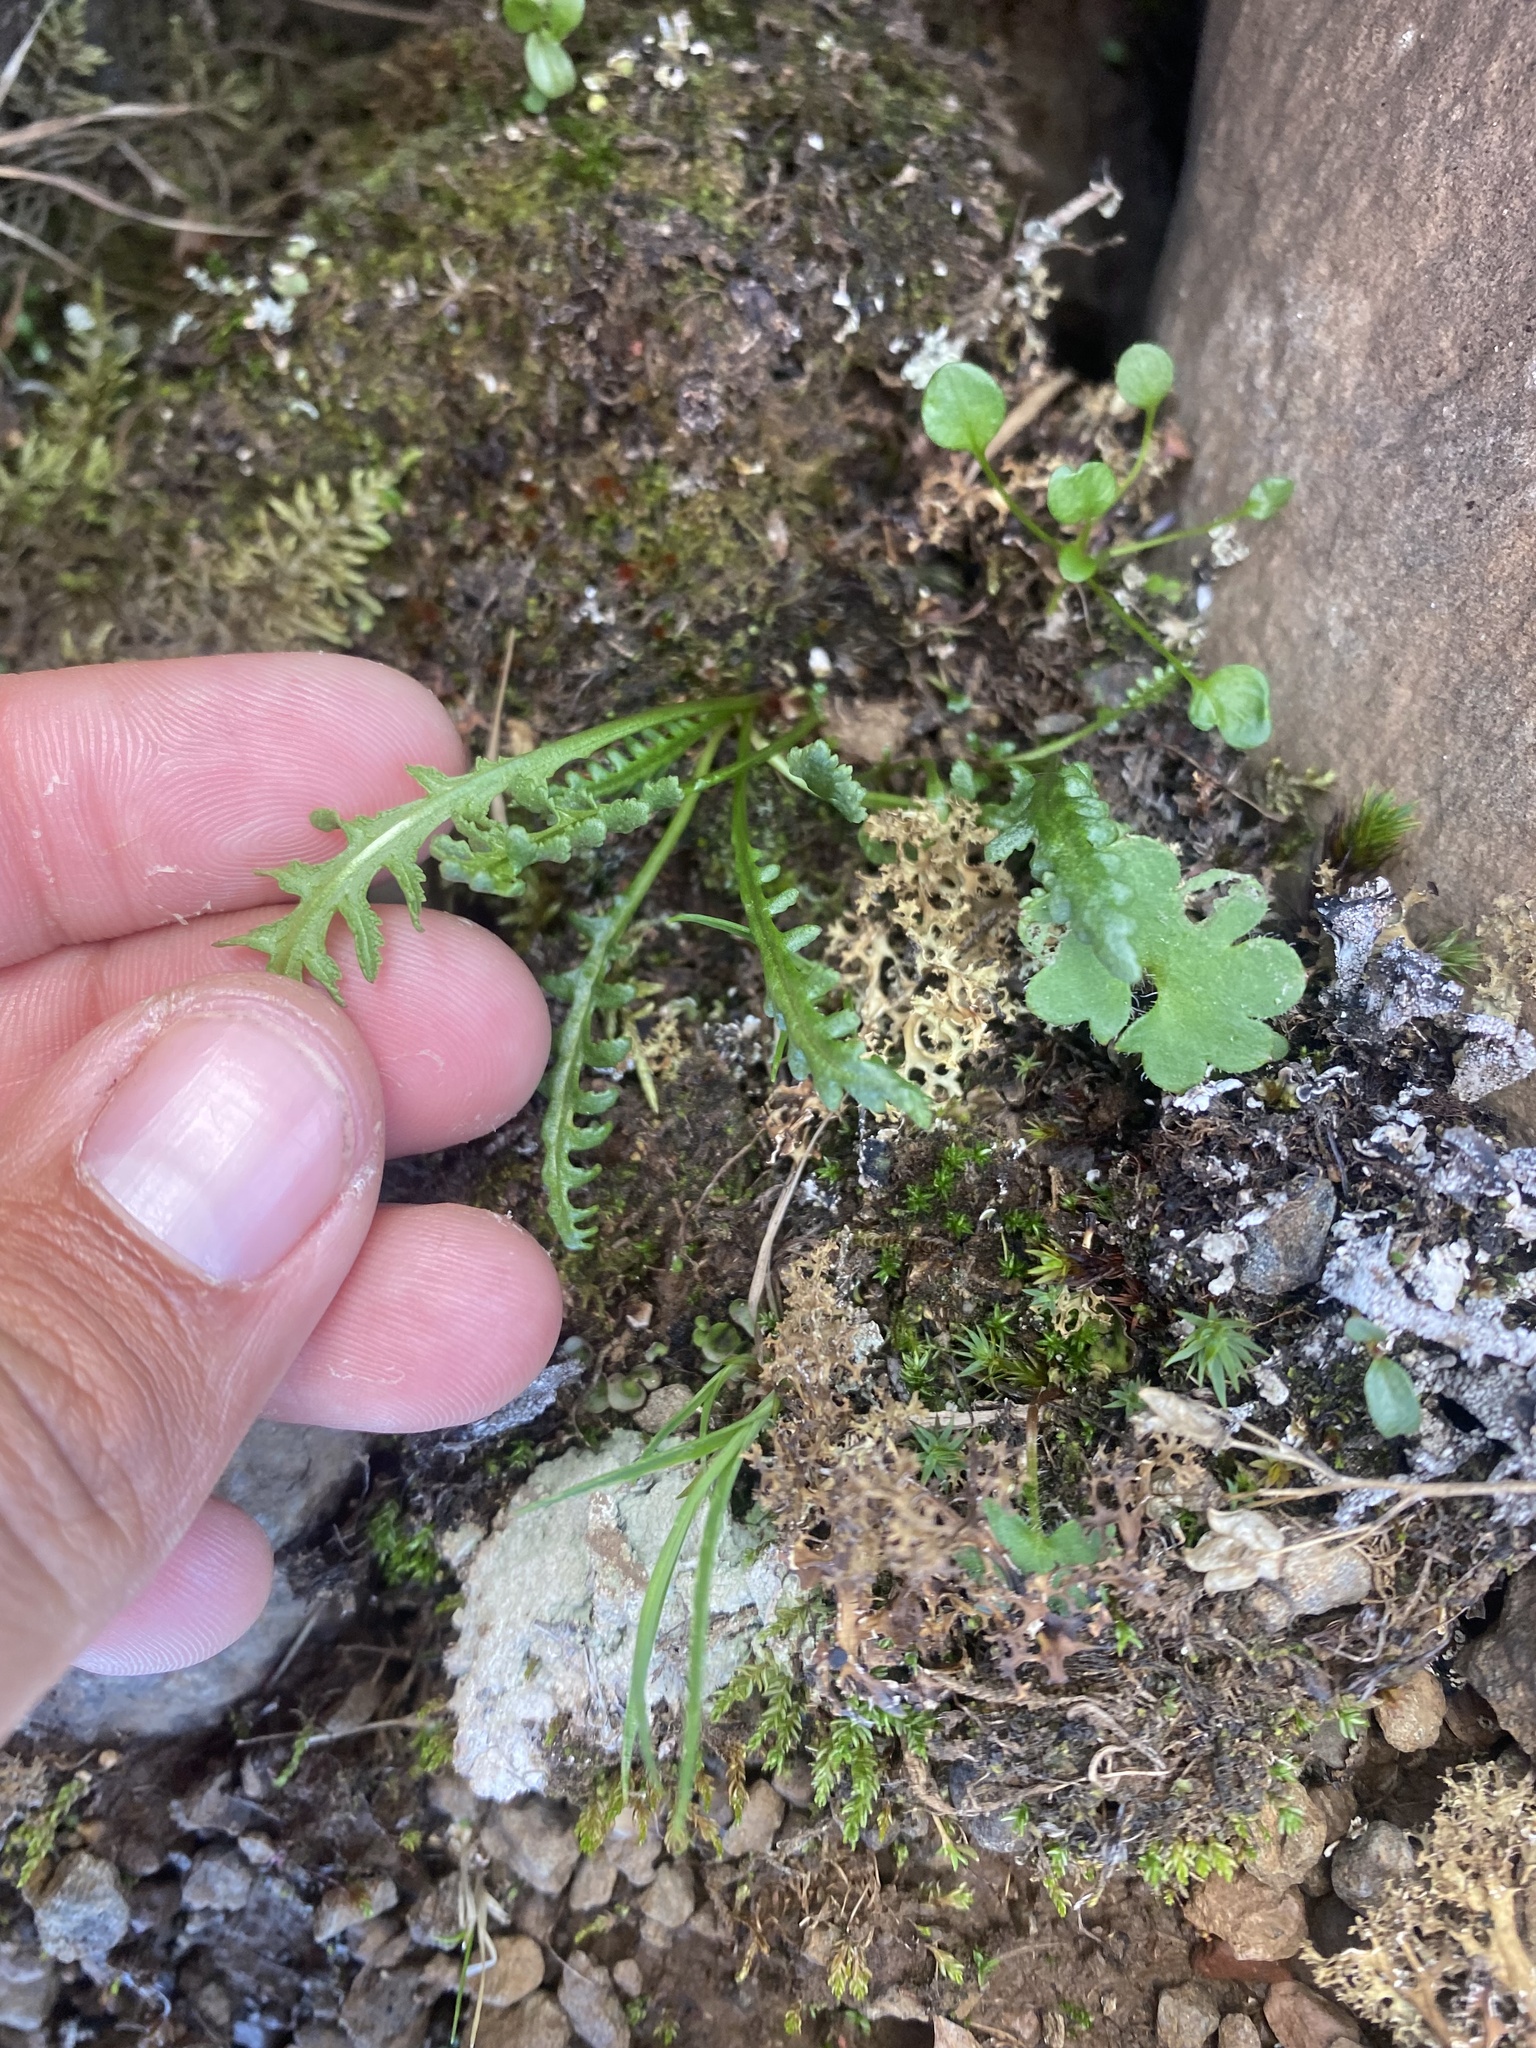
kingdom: Plantae
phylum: Tracheophyta
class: Magnoliopsida
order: Lamiales
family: Orobanchaceae
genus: Pedicularis
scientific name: Pedicularis sudetica
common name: Sudeten lousewort
